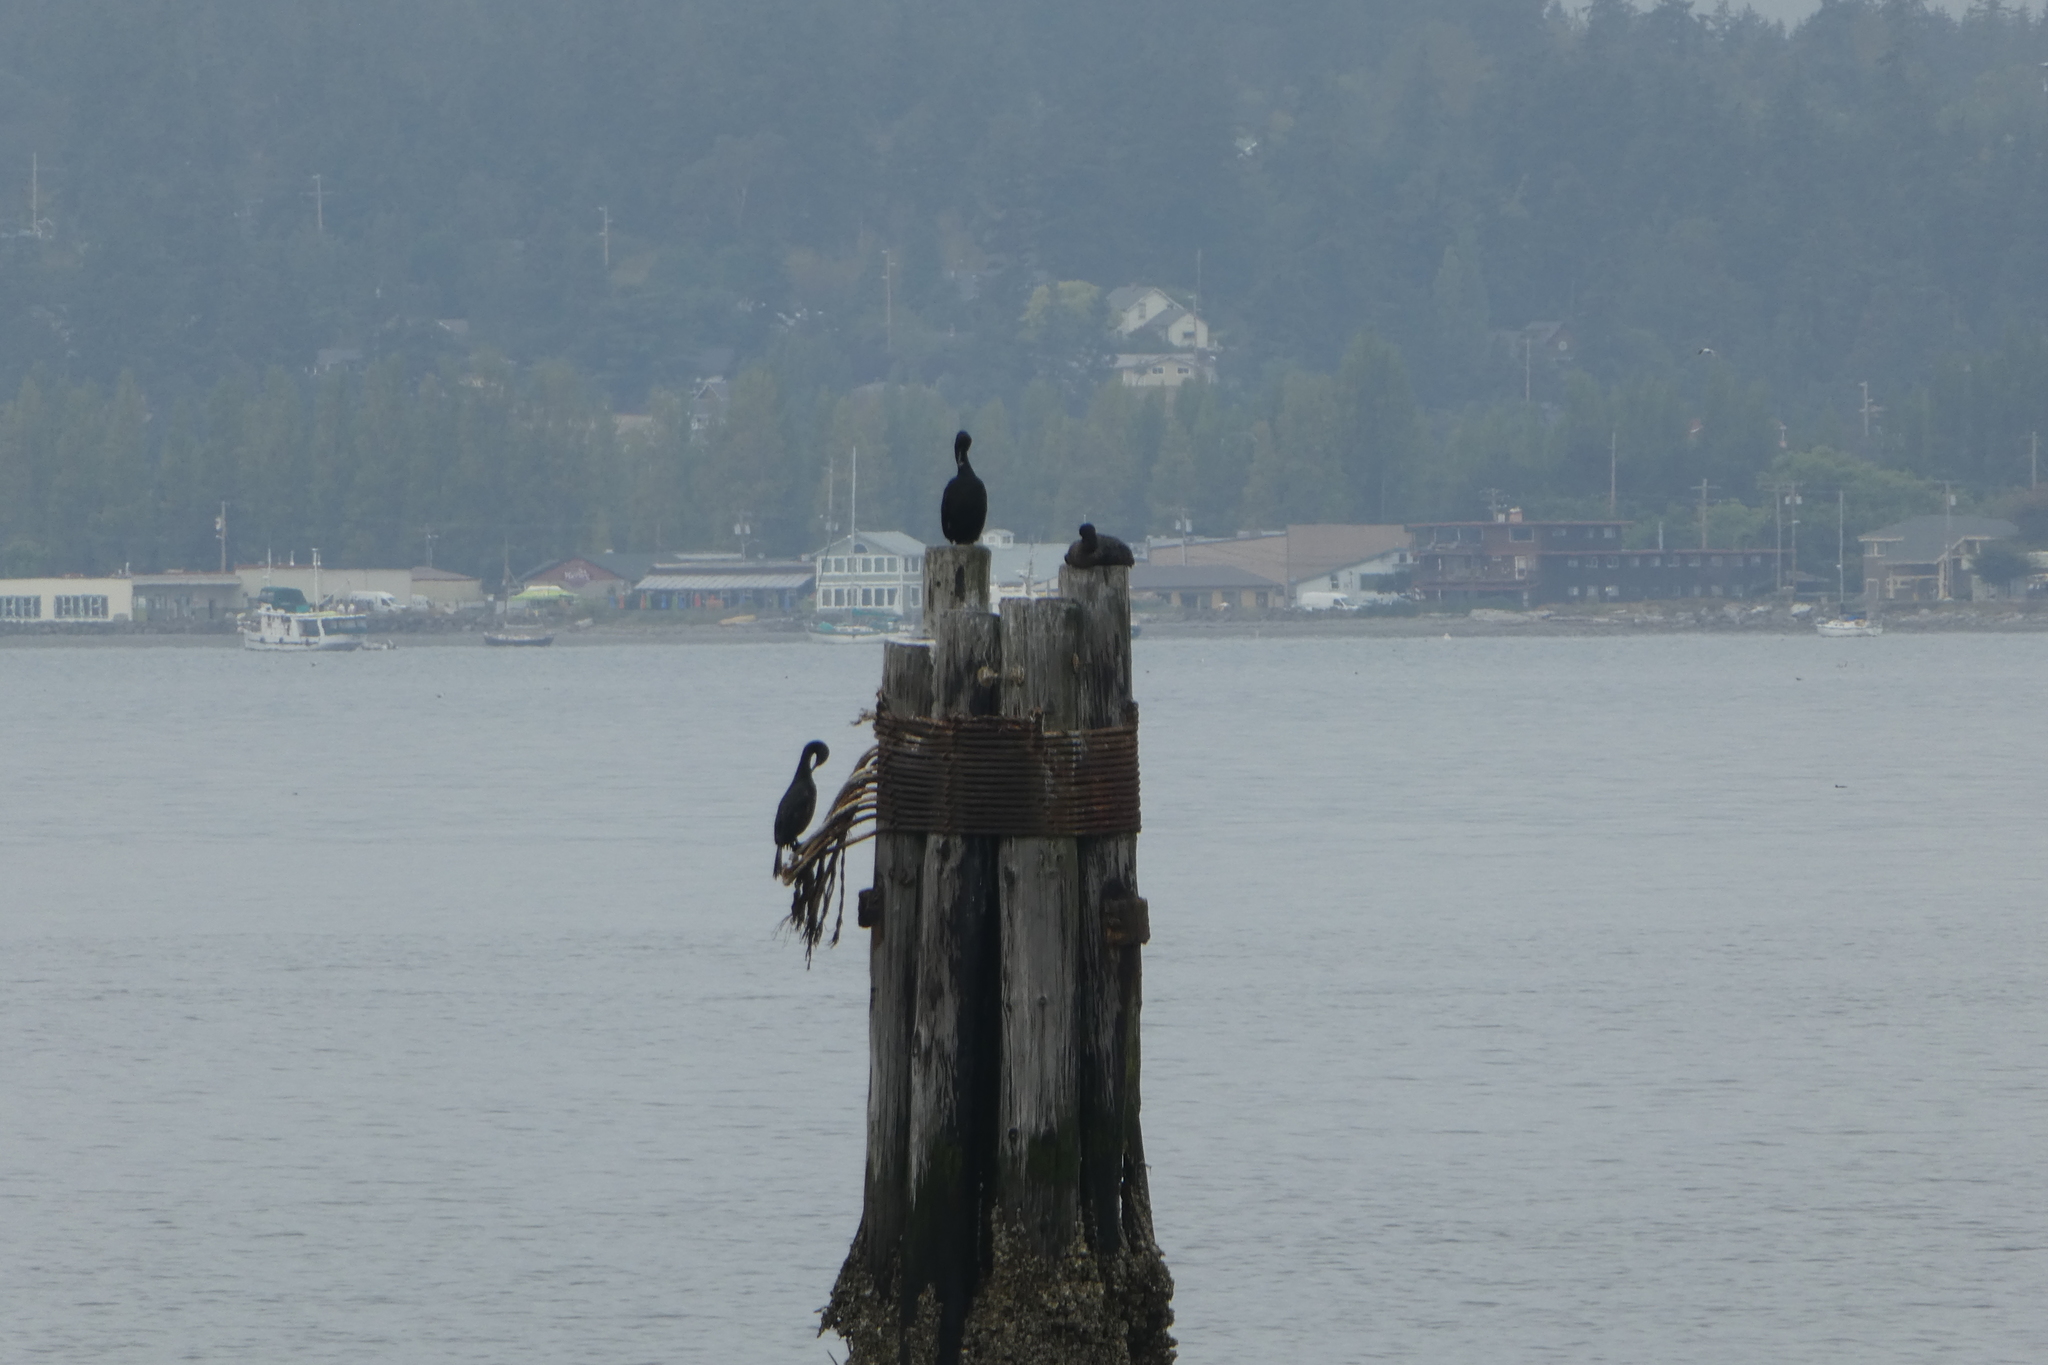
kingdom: Animalia
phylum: Chordata
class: Aves
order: Suliformes
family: Phalacrocoracidae
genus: Phalacrocorax
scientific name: Phalacrocorax auritus
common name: Double-crested cormorant
